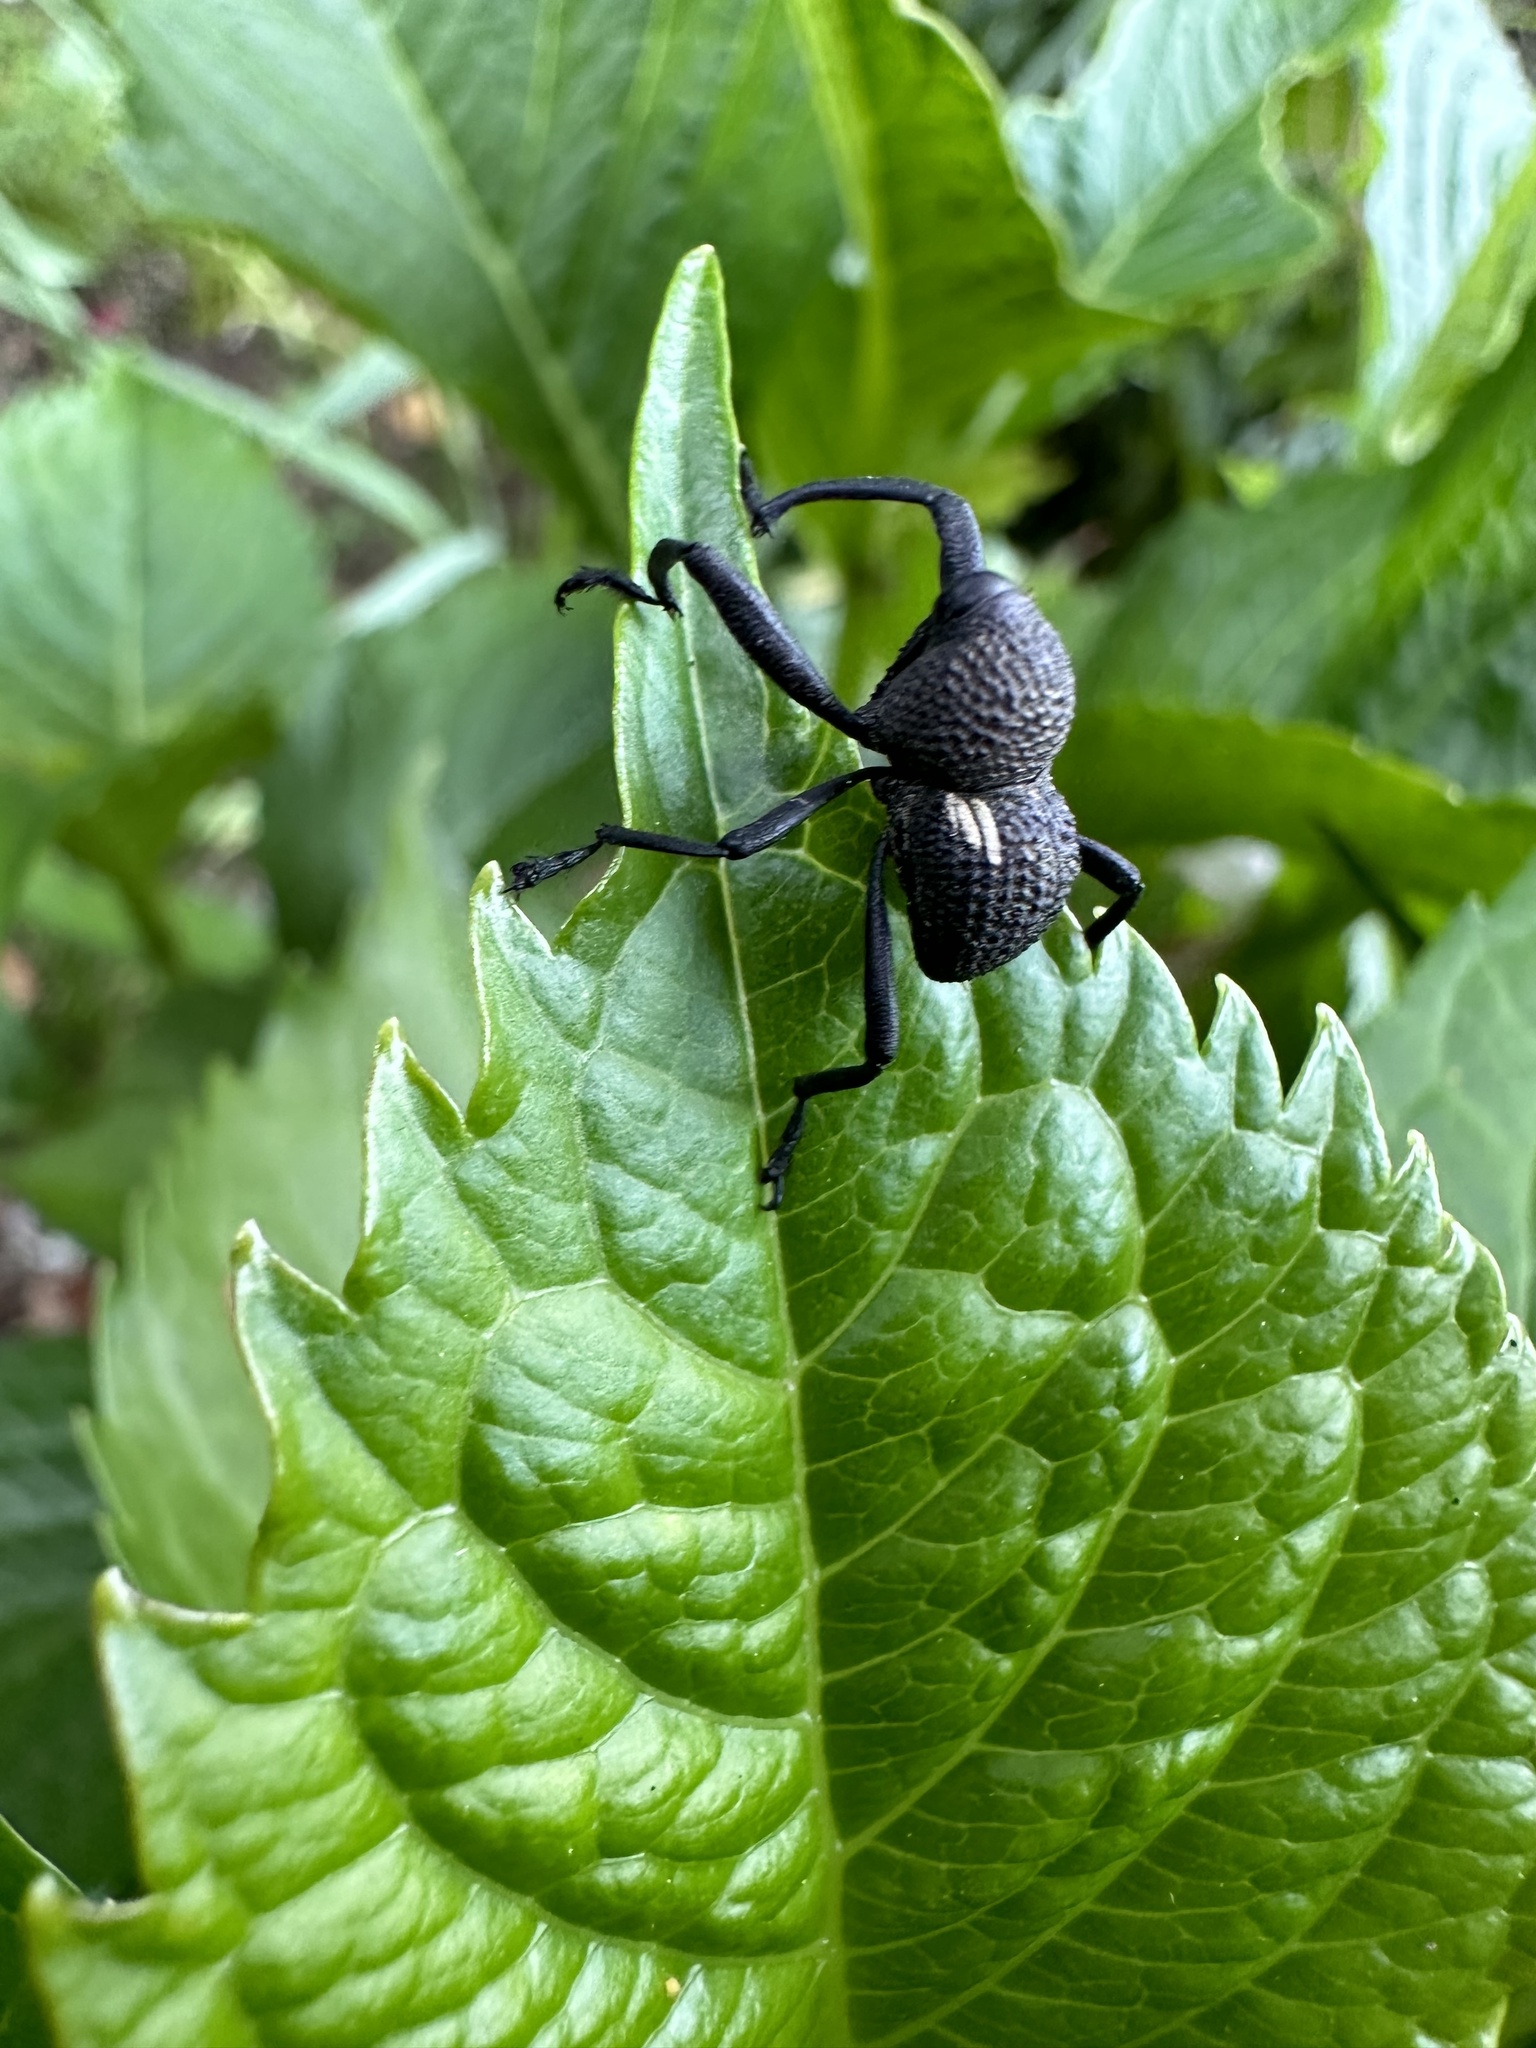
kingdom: Animalia
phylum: Arthropoda
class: Insecta
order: Coleoptera
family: Curculionidae
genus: Rhyephenes
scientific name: Rhyephenes humeralis
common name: Araè±ita chilena del pino
